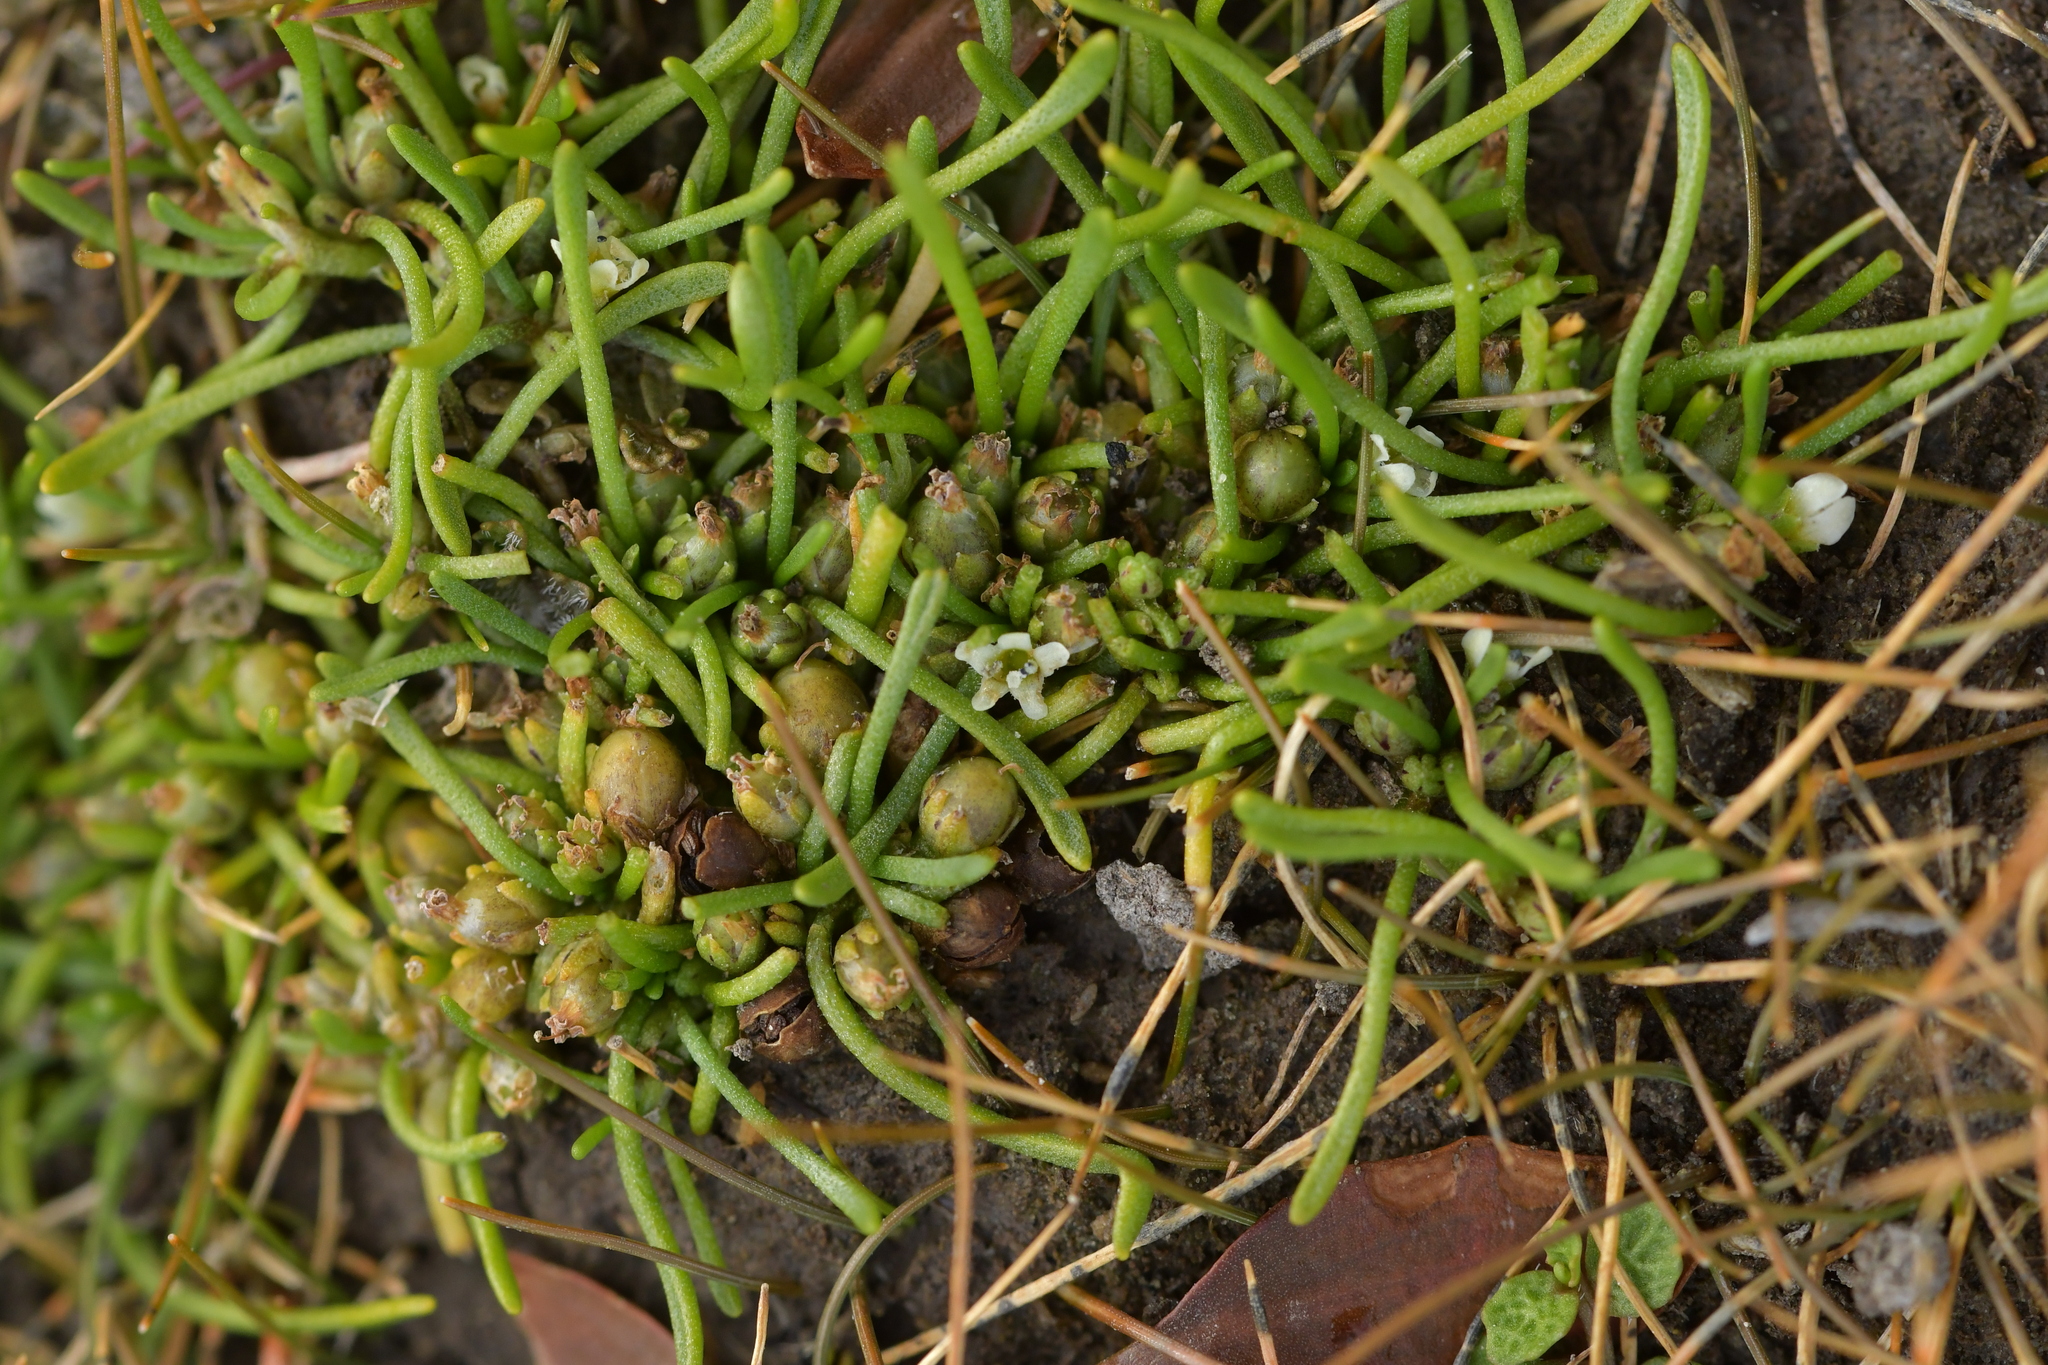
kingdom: Plantae
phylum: Tracheophyta
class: Magnoliopsida
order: Lamiales
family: Scrophulariaceae
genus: Limosella
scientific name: Limosella australis
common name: Welsh mudwort
